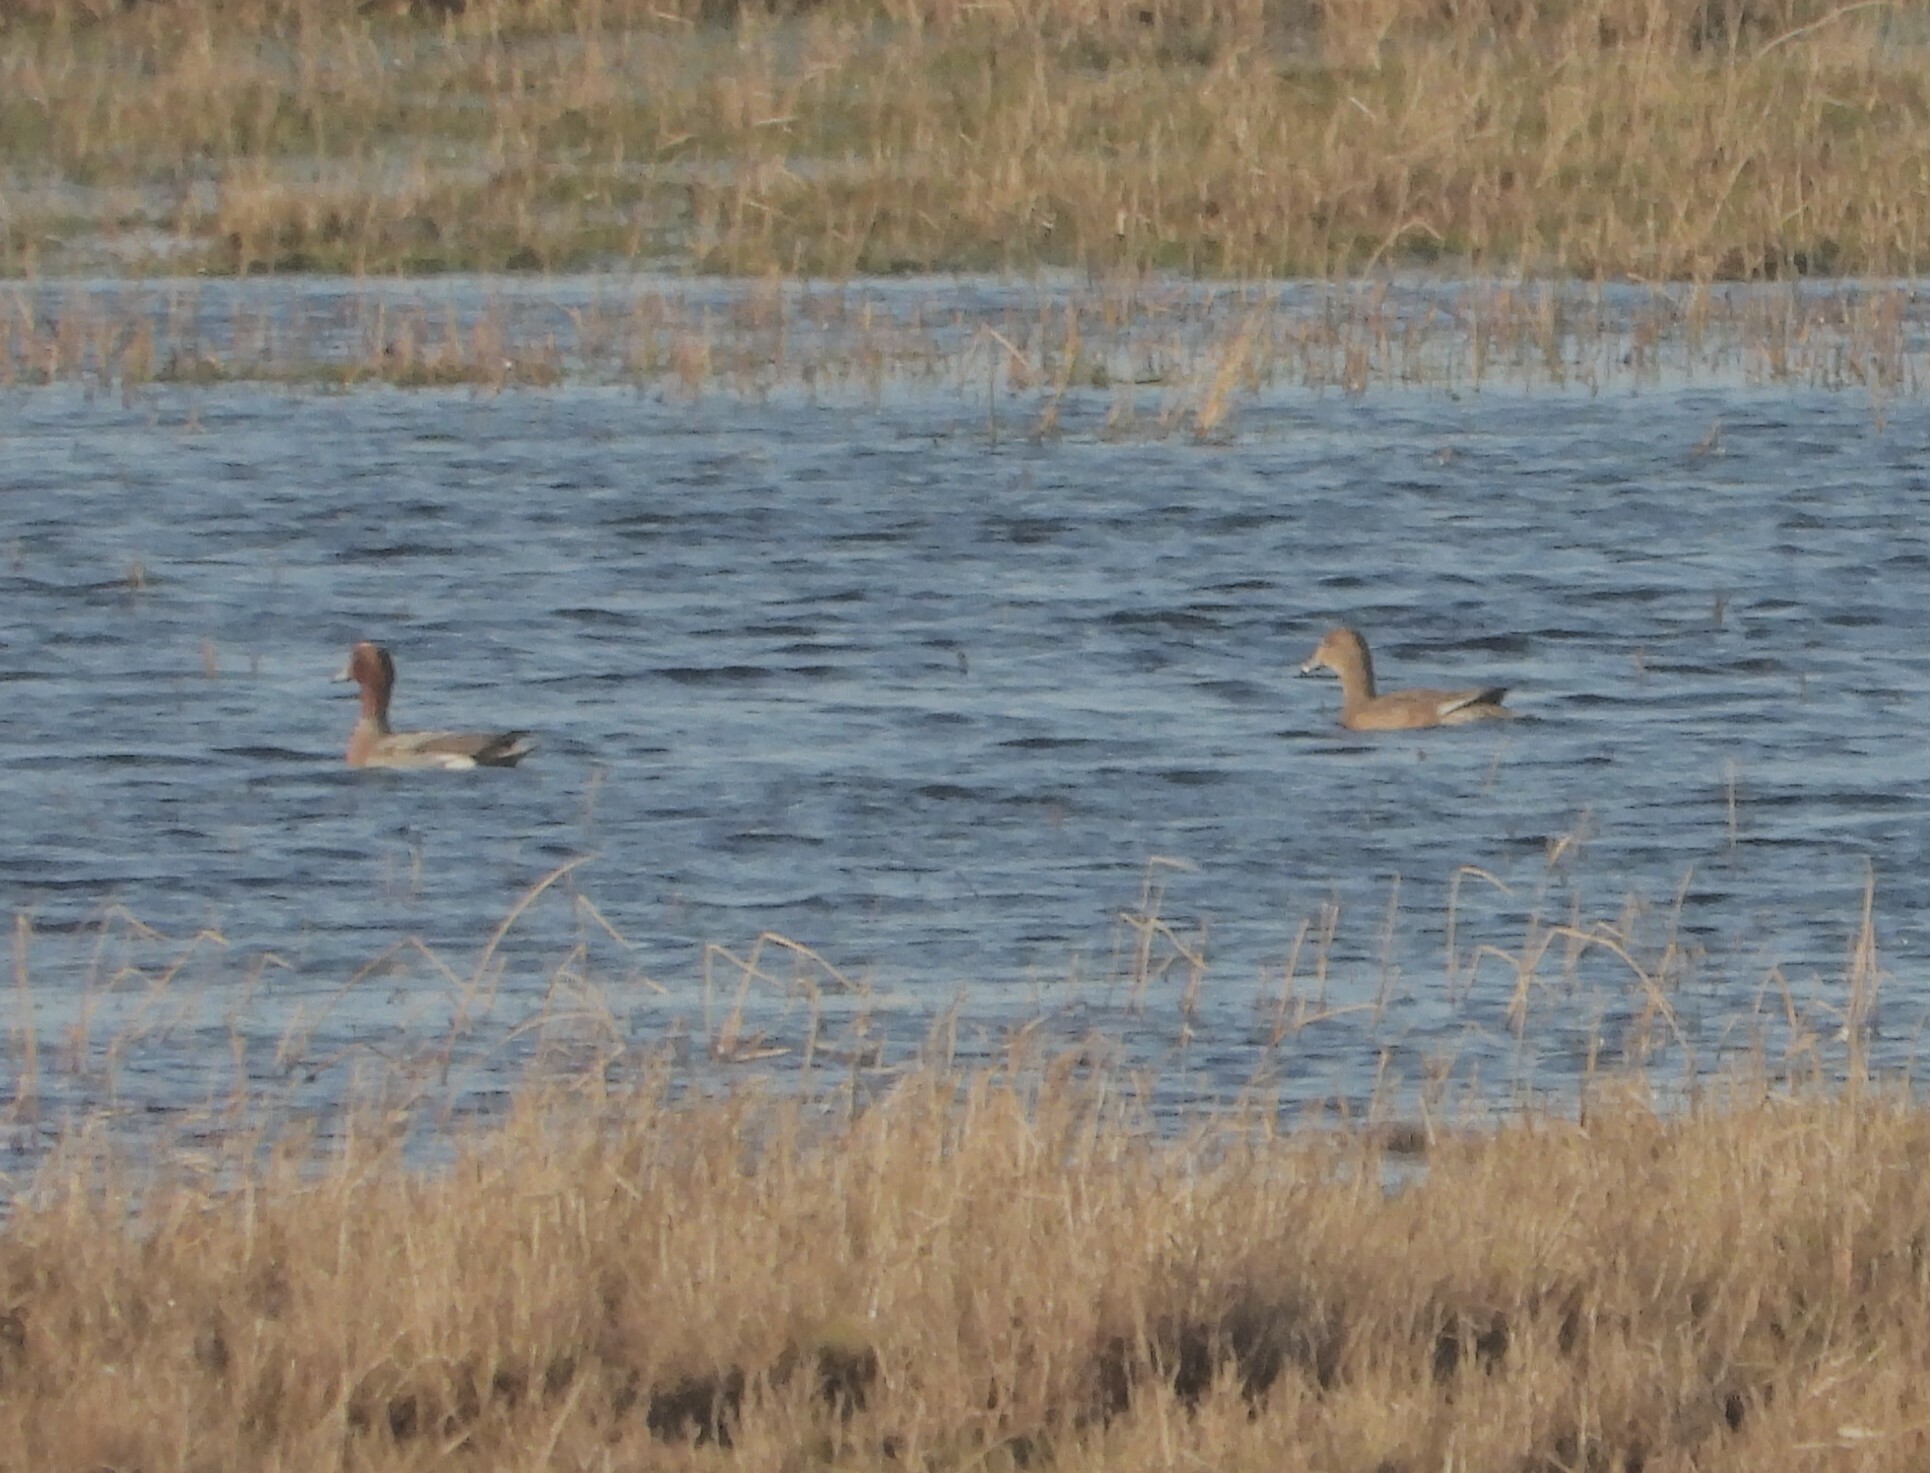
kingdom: Animalia
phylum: Chordata
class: Aves
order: Anseriformes
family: Anatidae
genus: Mareca
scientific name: Mareca penelope
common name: Eurasian wigeon
